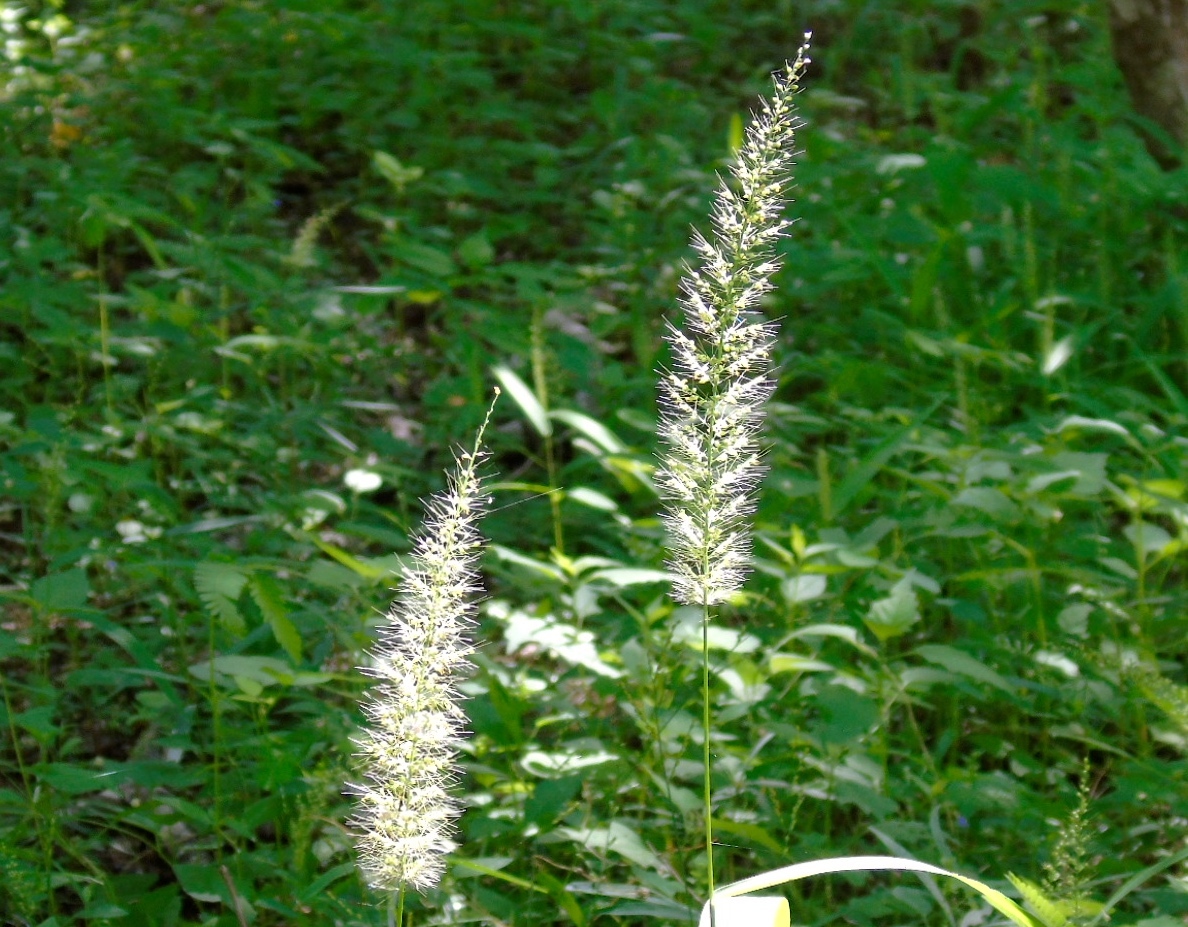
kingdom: Plantae
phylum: Tracheophyta
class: Liliopsida
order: Poales
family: Poaceae
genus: Setaria
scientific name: Setaria scheelei
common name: Southwestern bristle grass
